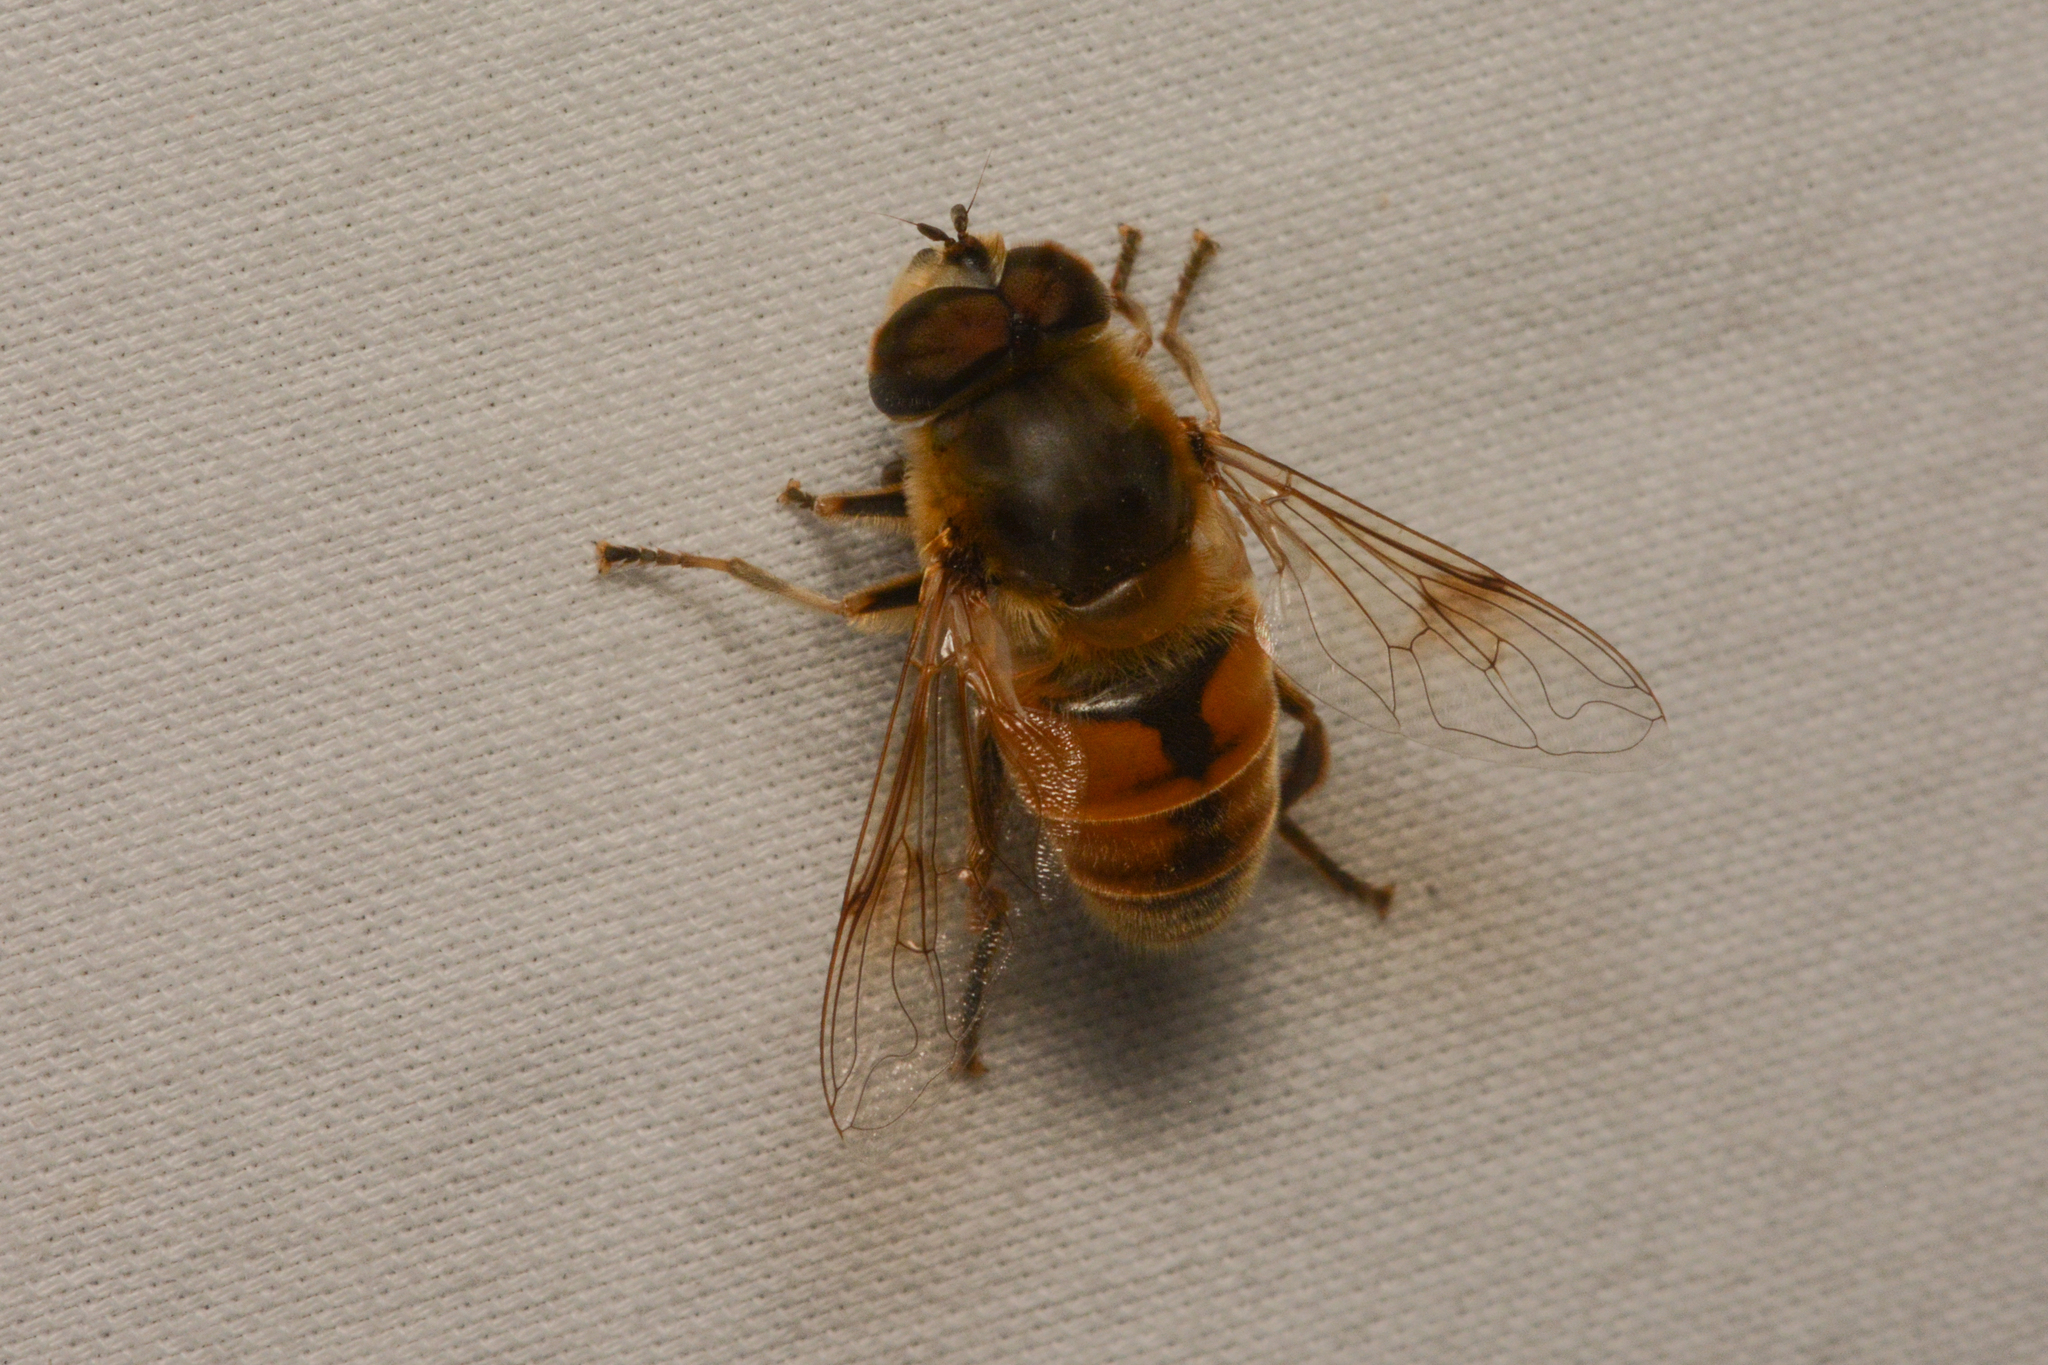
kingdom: Animalia
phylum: Arthropoda
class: Insecta
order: Diptera
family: Syrphidae
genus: Eristalis
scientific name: Eristalis tenax
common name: Drone fly
